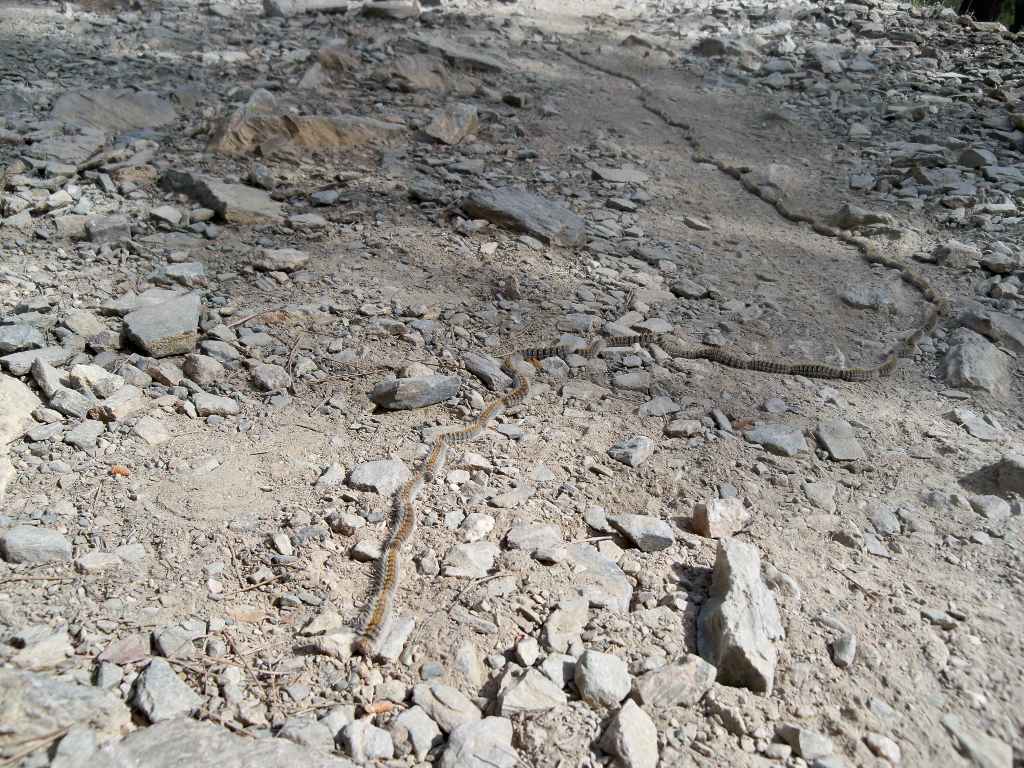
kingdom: Animalia
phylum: Arthropoda
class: Insecta
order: Lepidoptera
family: Notodontidae
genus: Thaumetopoea
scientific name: Thaumetopoea pityocampa
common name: Pine processionary
